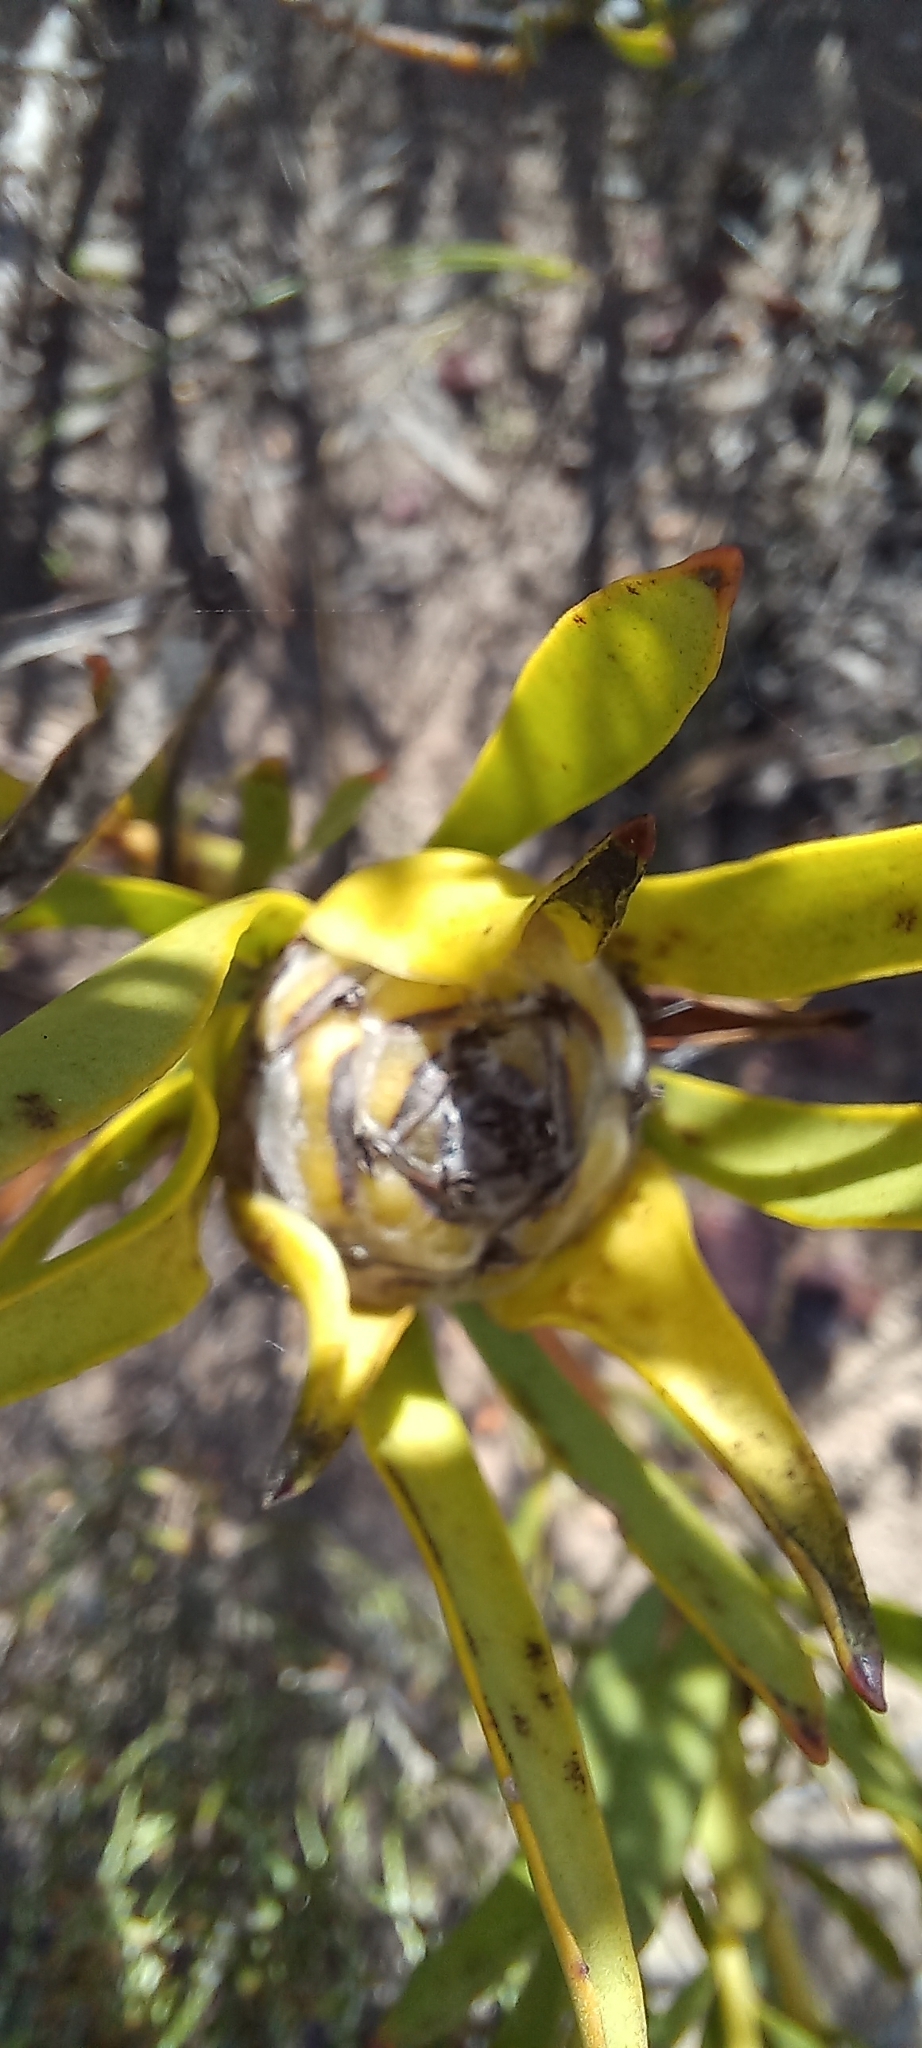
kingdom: Plantae
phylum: Tracheophyta
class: Magnoliopsida
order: Proteales
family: Proteaceae
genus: Leucadendron
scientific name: Leucadendron salignum
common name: Common sunshine conebush
